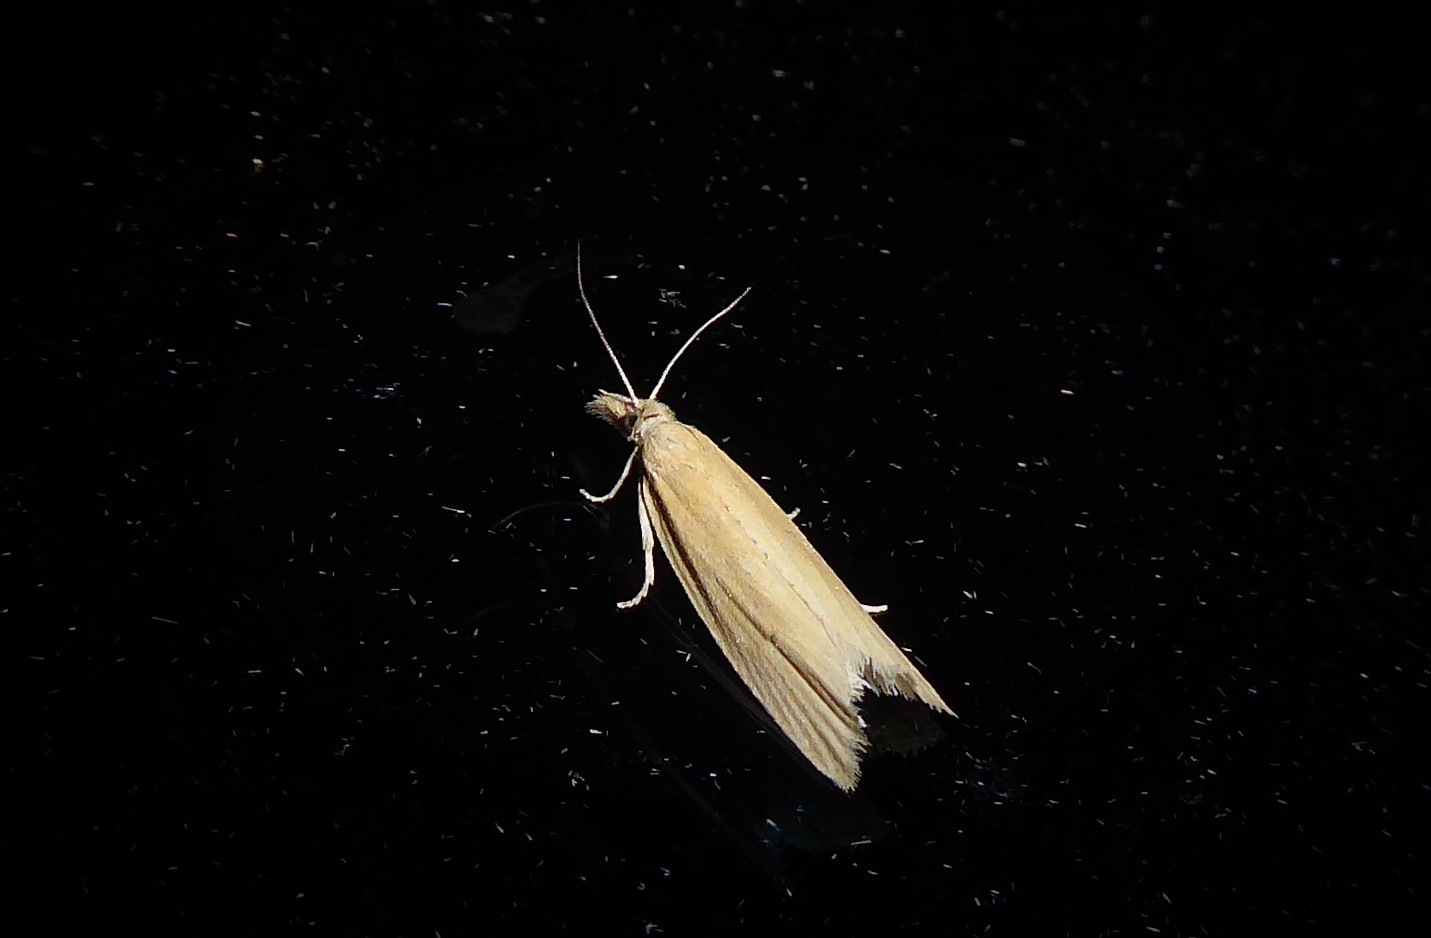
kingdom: Animalia
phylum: Arthropoda
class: Insecta
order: Lepidoptera
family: Tortricidae
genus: Bactra
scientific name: Bactra noteraula
